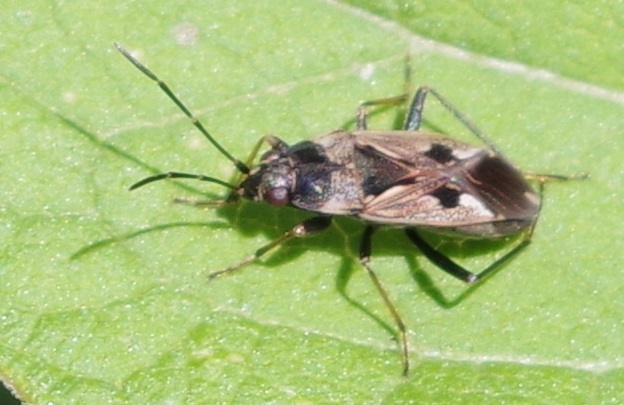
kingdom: Animalia
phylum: Arthropoda
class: Insecta
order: Hemiptera
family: Rhyparochromidae
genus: Rhyparochromus
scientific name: Rhyparochromus vulgaris
